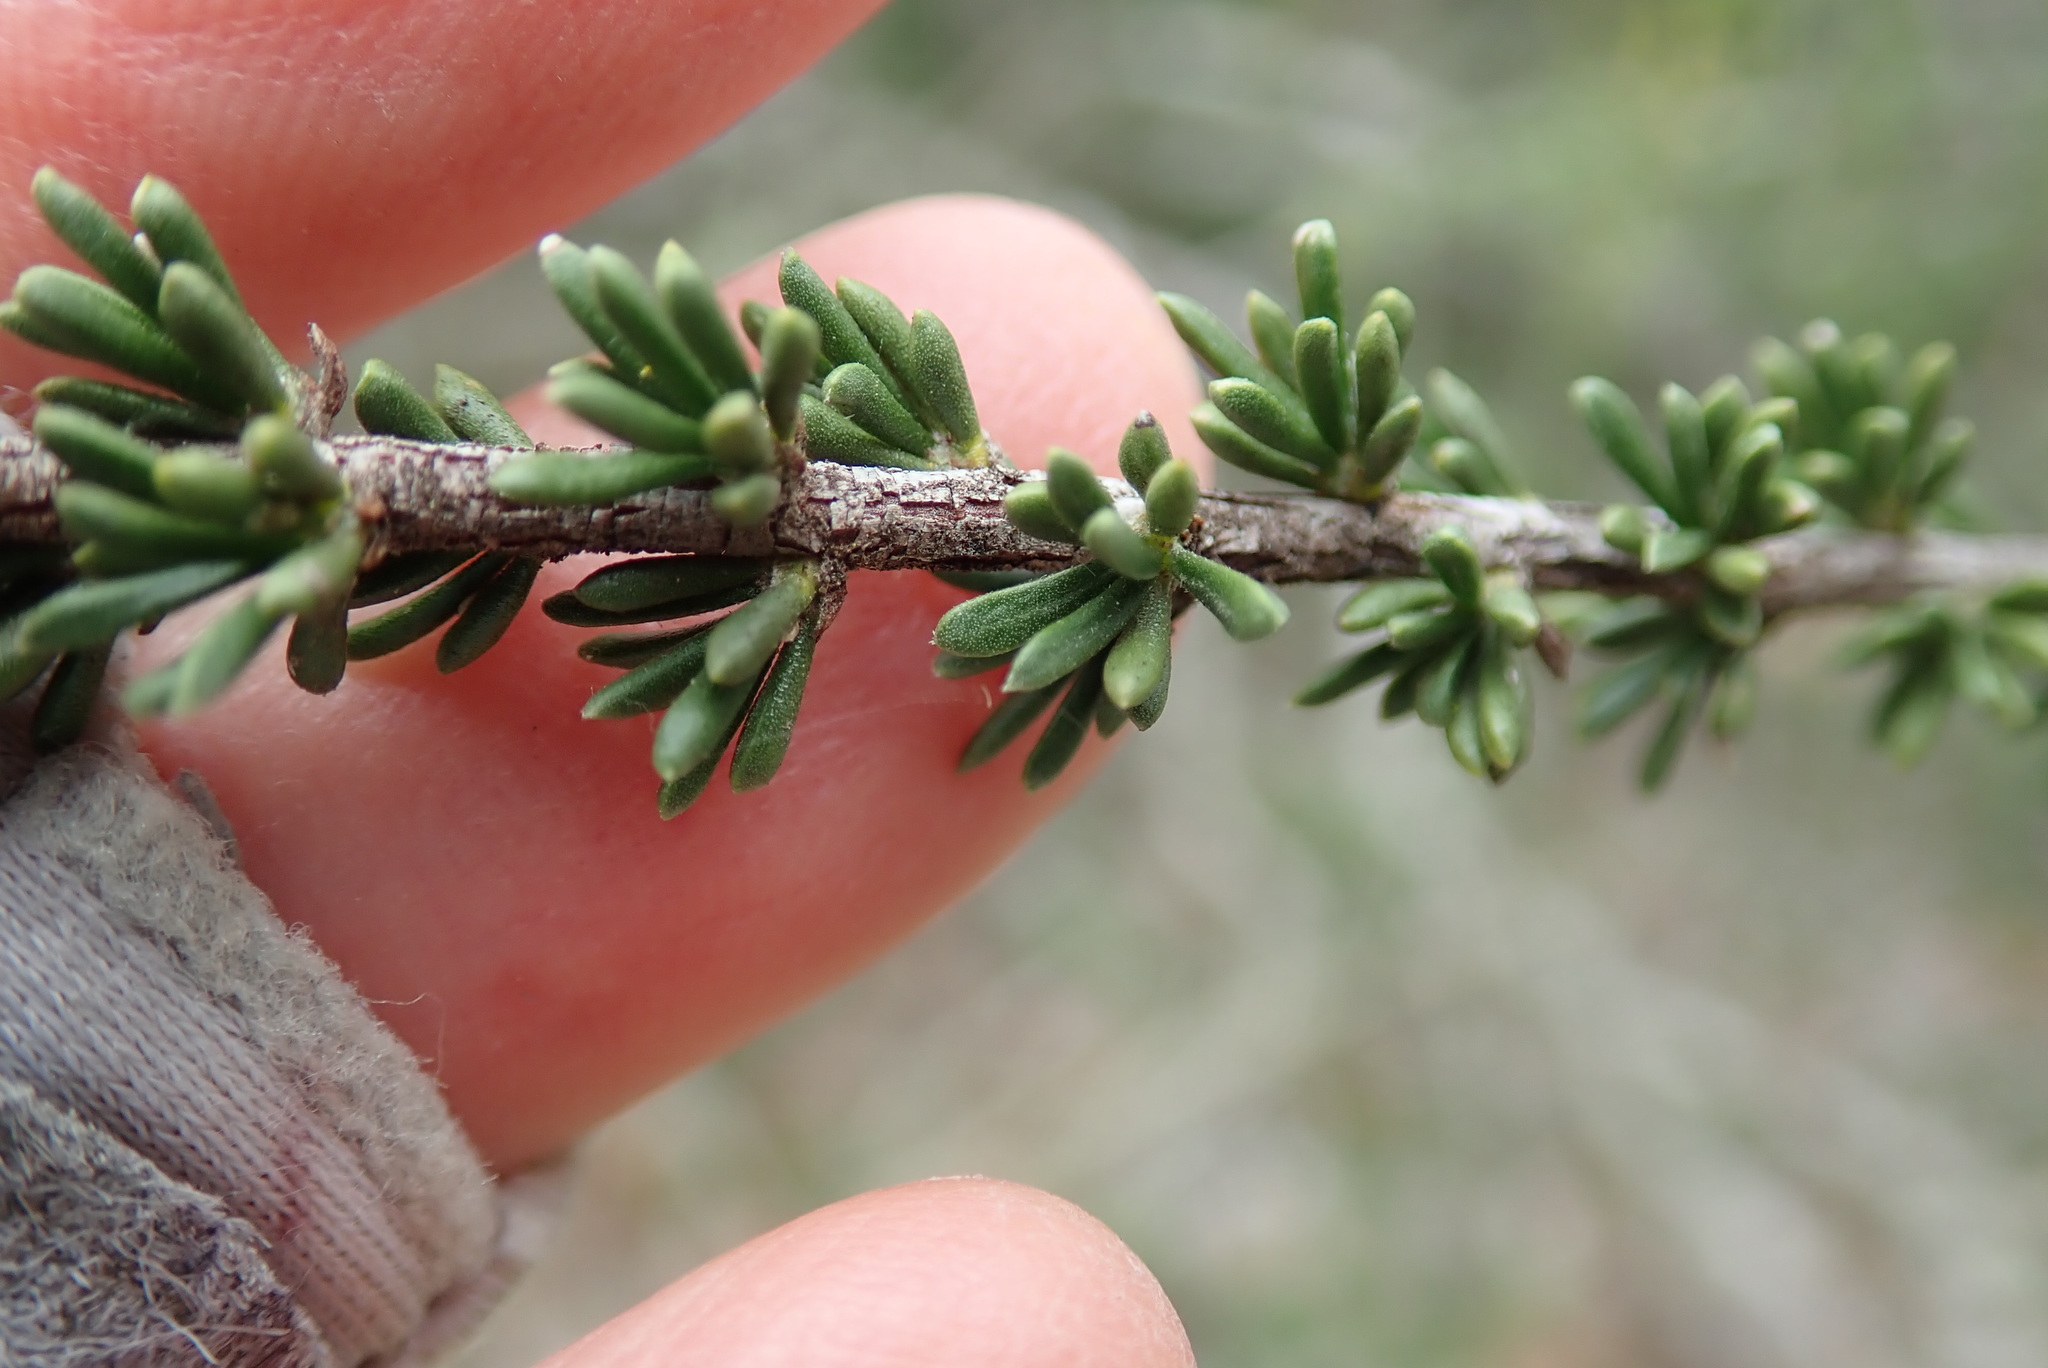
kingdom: Plantae
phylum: Tracheophyta
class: Magnoliopsida
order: Rosales
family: Rosaceae
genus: Adenostoma
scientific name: Adenostoma fasciculatum
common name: Chamise
